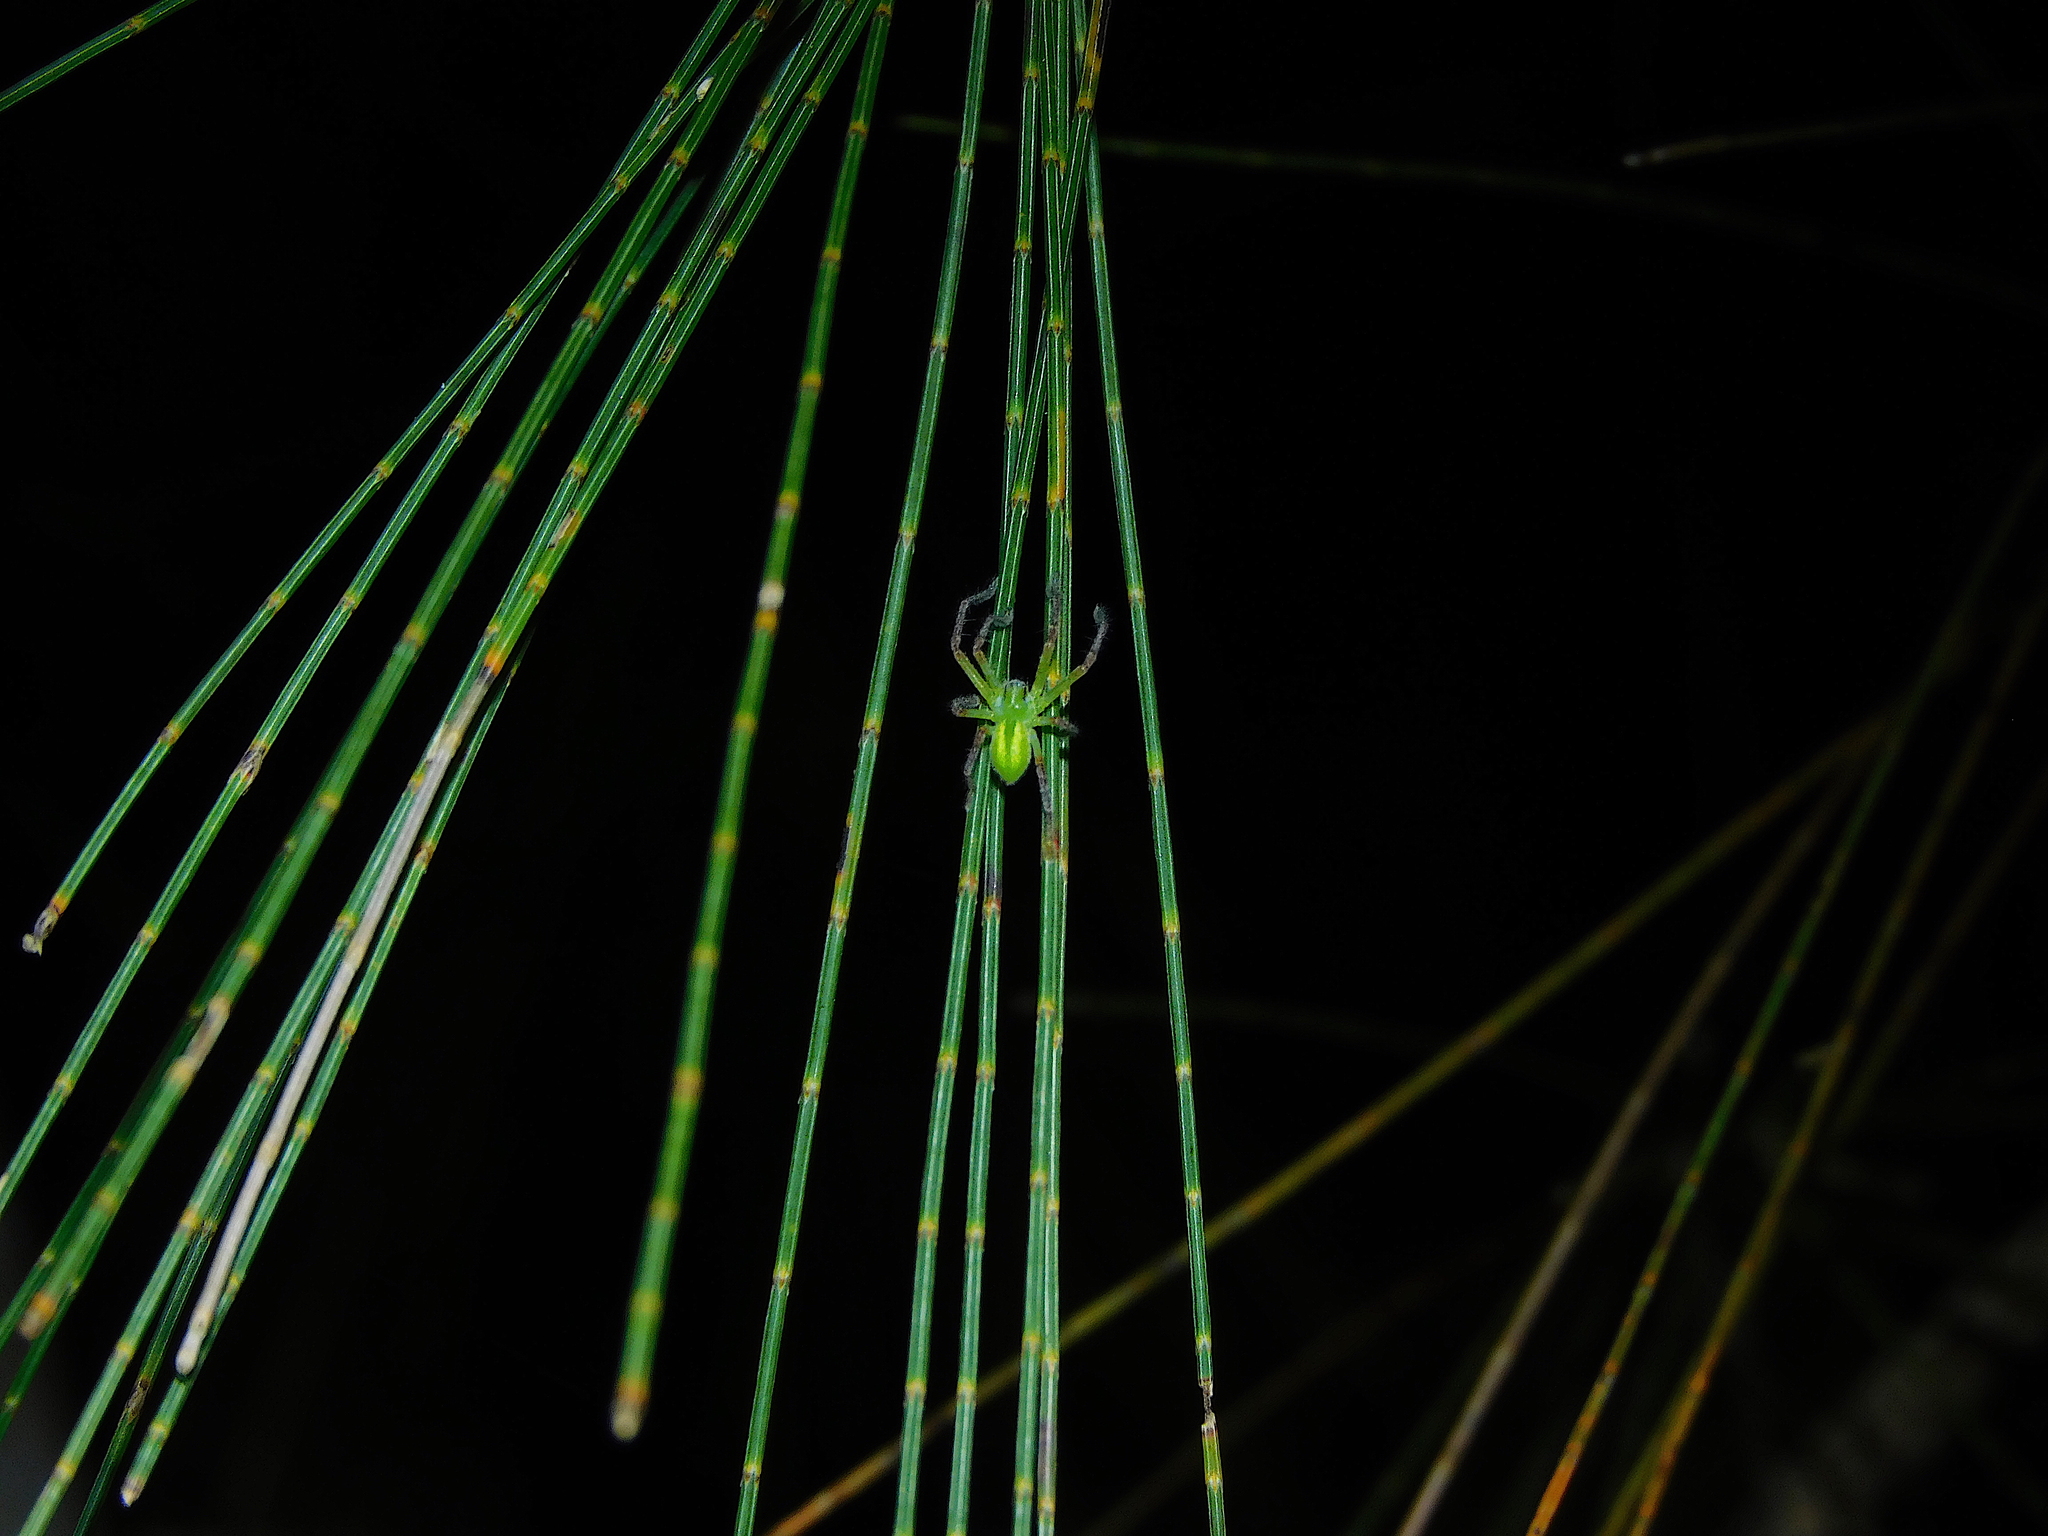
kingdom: Animalia
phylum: Arthropoda
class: Arachnida
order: Araneae
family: Sparassidae
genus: Neosparassus
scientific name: Neosparassus patellatus
